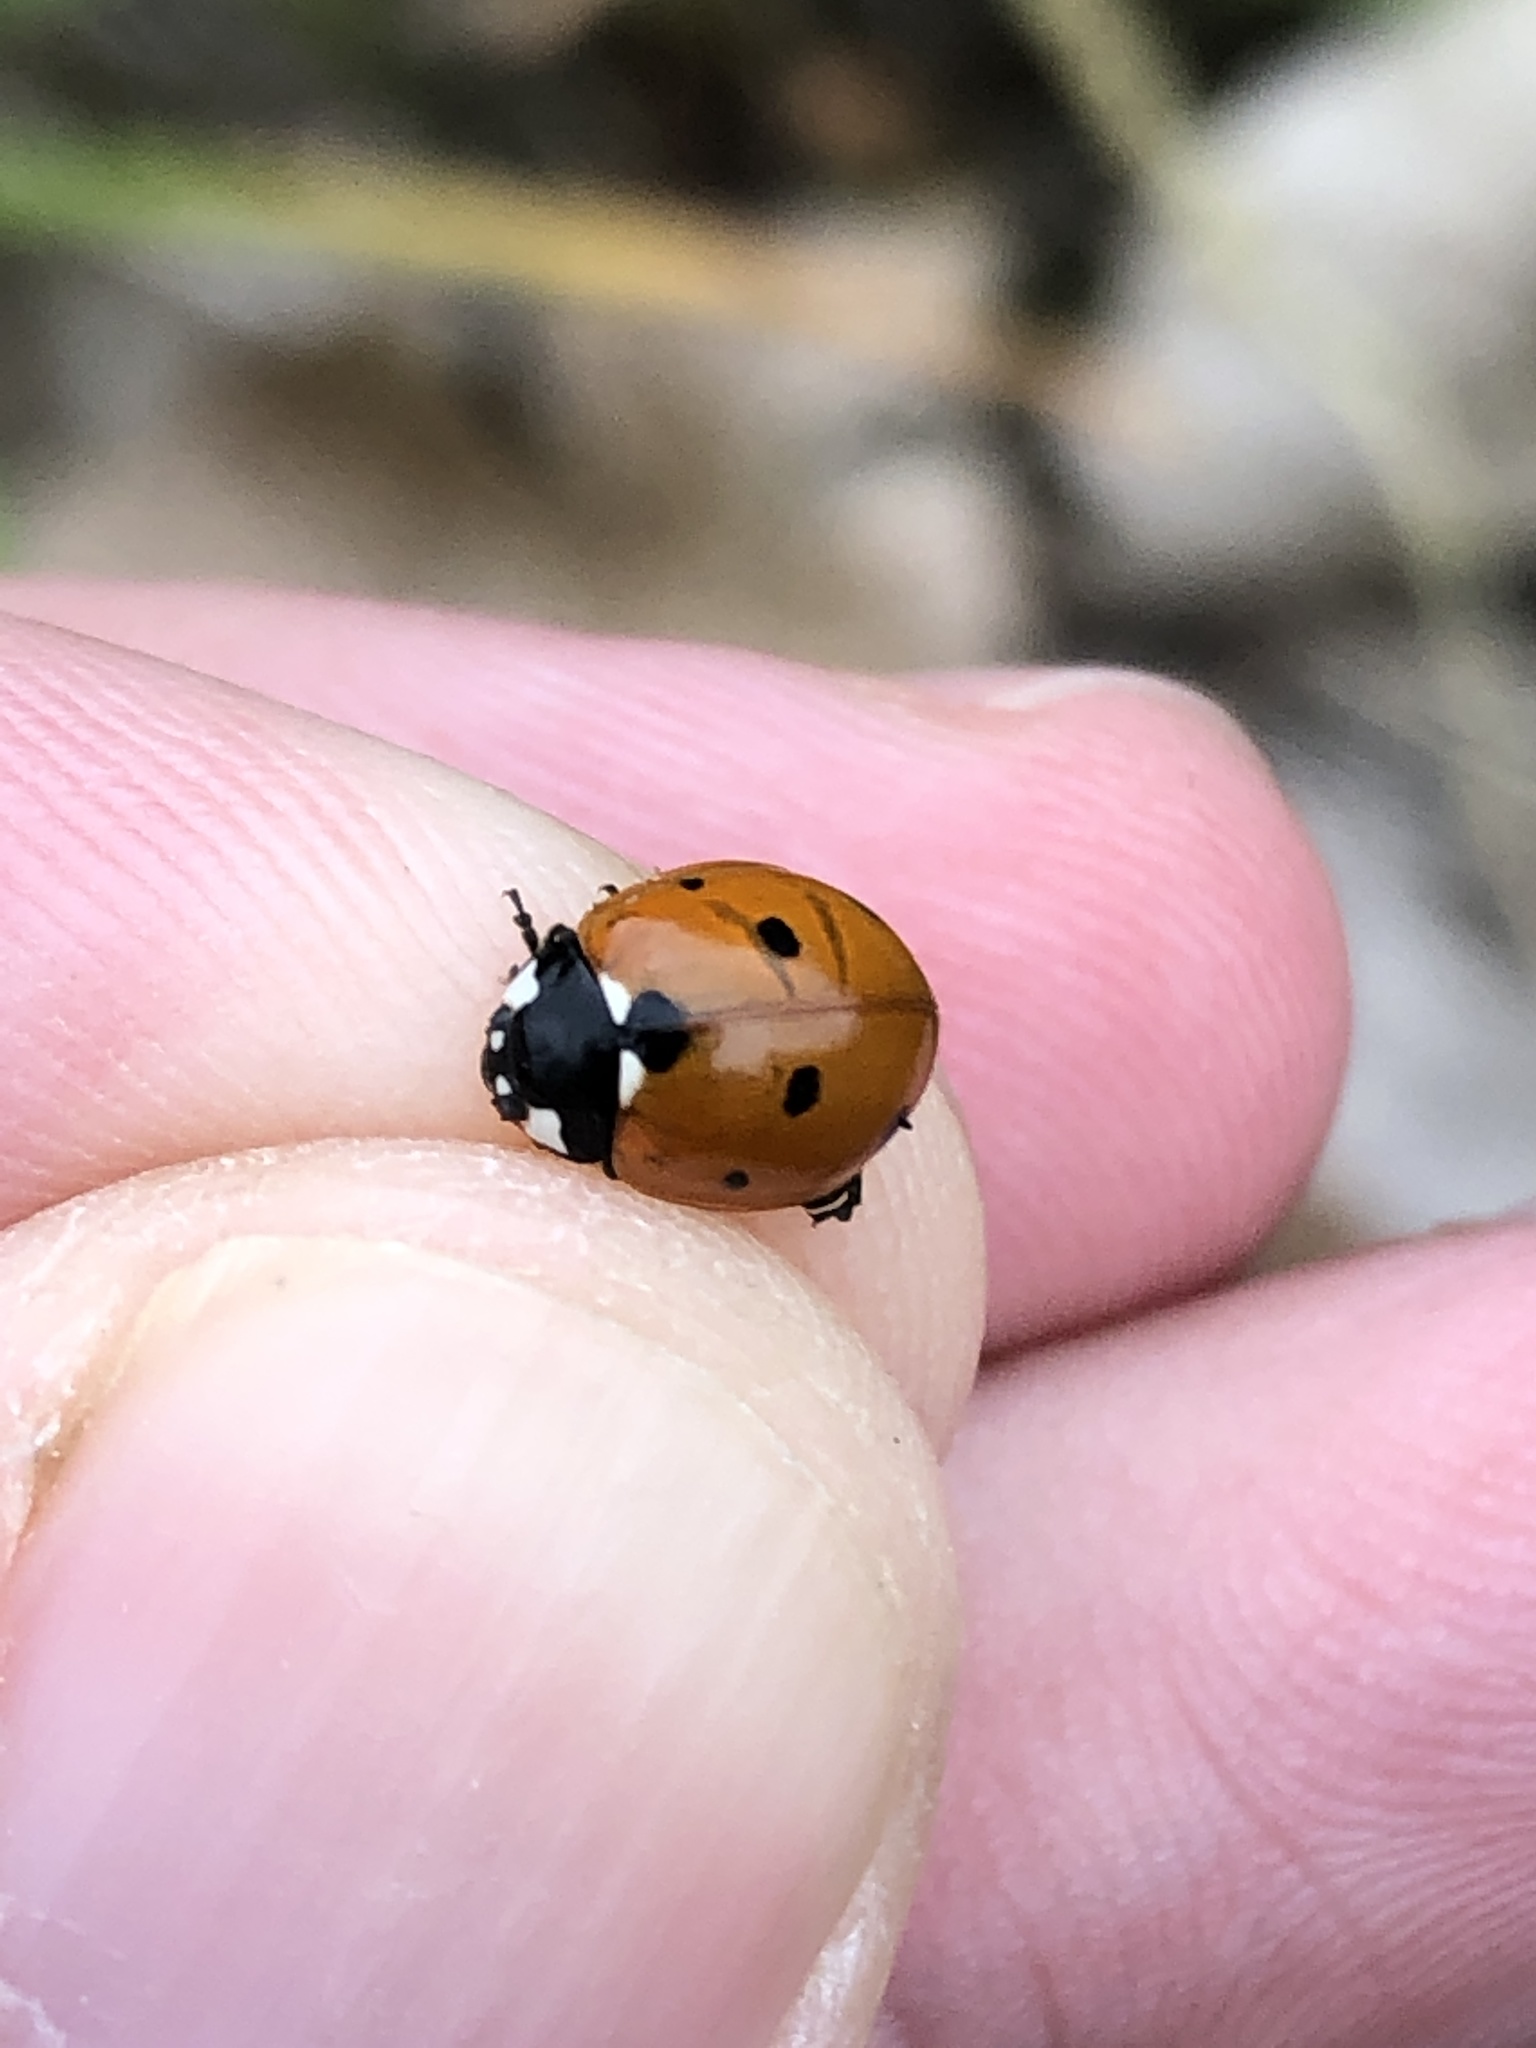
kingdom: Animalia
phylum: Arthropoda
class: Insecta
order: Coleoptera
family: Coccinellidae
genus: Coccinella
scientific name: Coccinella septempunctata
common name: Sevenspotted lady beetle
